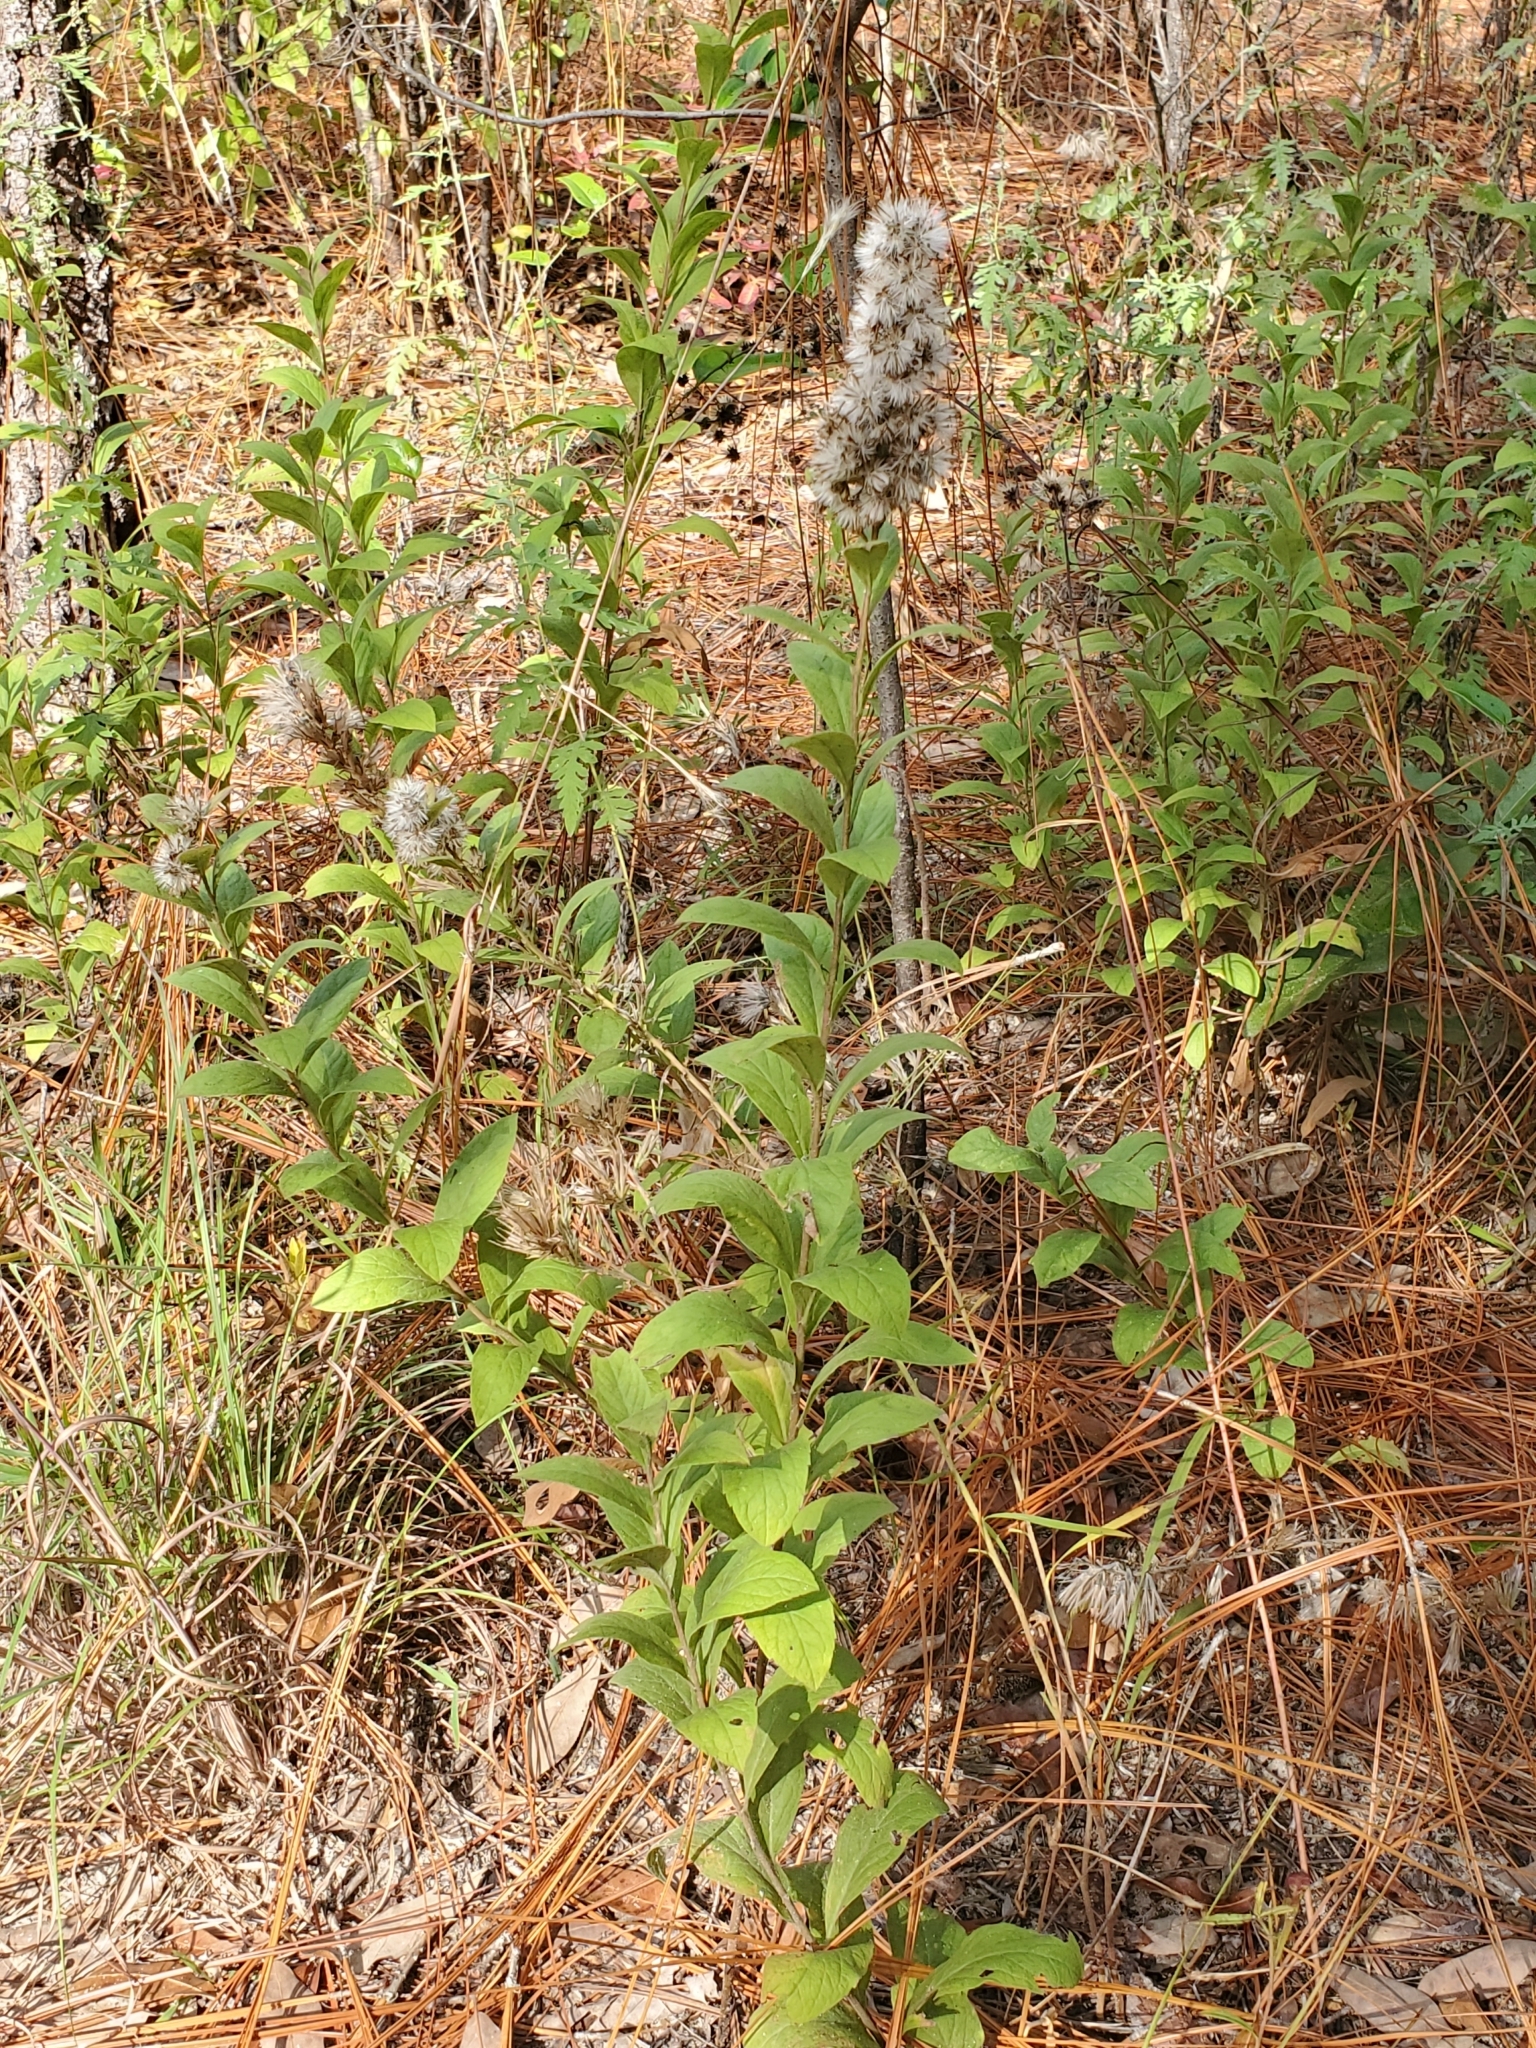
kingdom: Plantae
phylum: Tracheophyta
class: Magnoliopsida
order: Asterales
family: Asteraceae
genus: Solidago
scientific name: Solidago rugosa
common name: Rough-stemmed goldenrod
